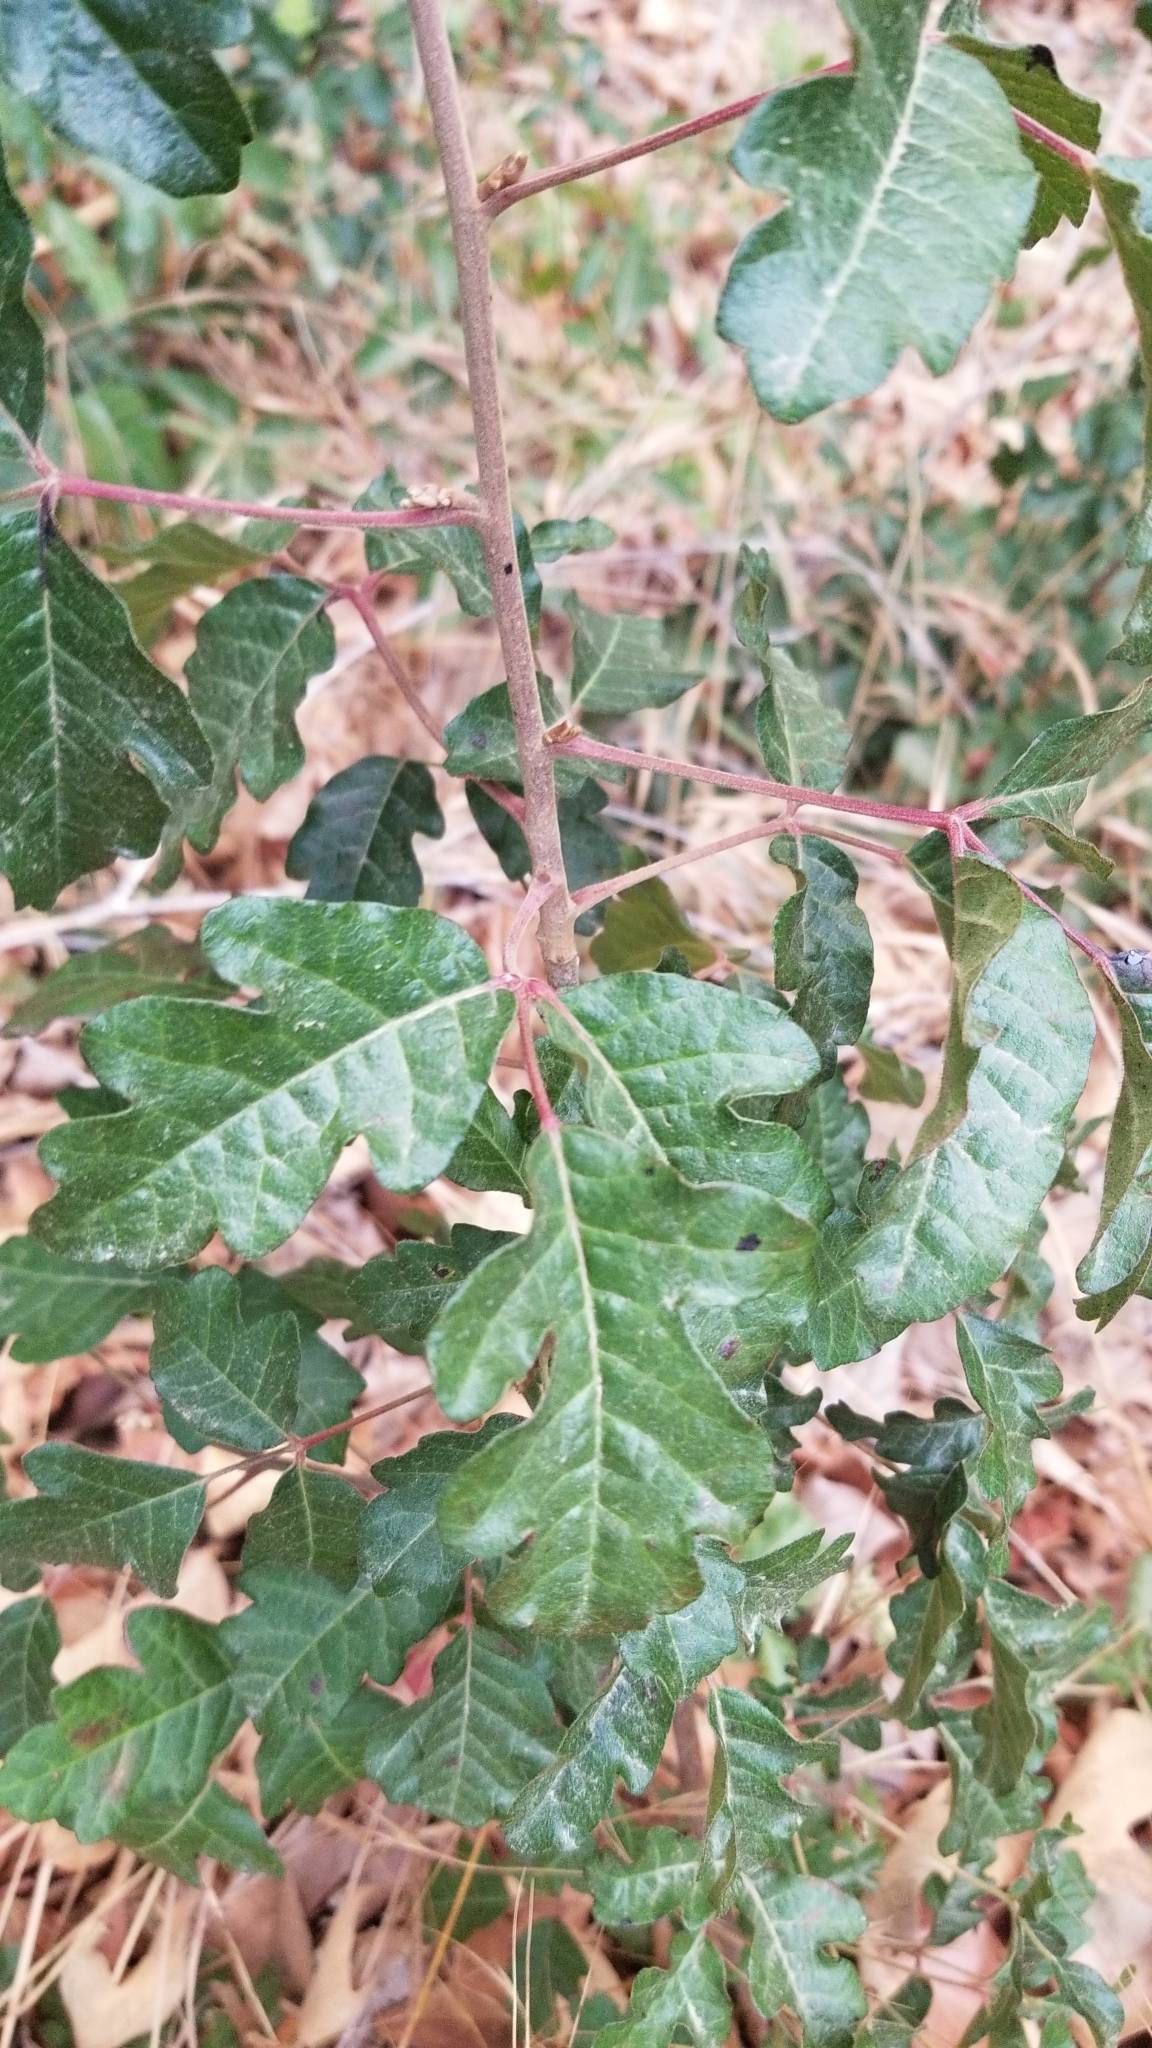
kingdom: Plantae
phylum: Tracheophyta
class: Magnoliopsida
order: Sapindales
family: Anacardiaceae
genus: Toxicodendron
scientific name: Toxicodendron diversilobum
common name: Pacific poison-oak
